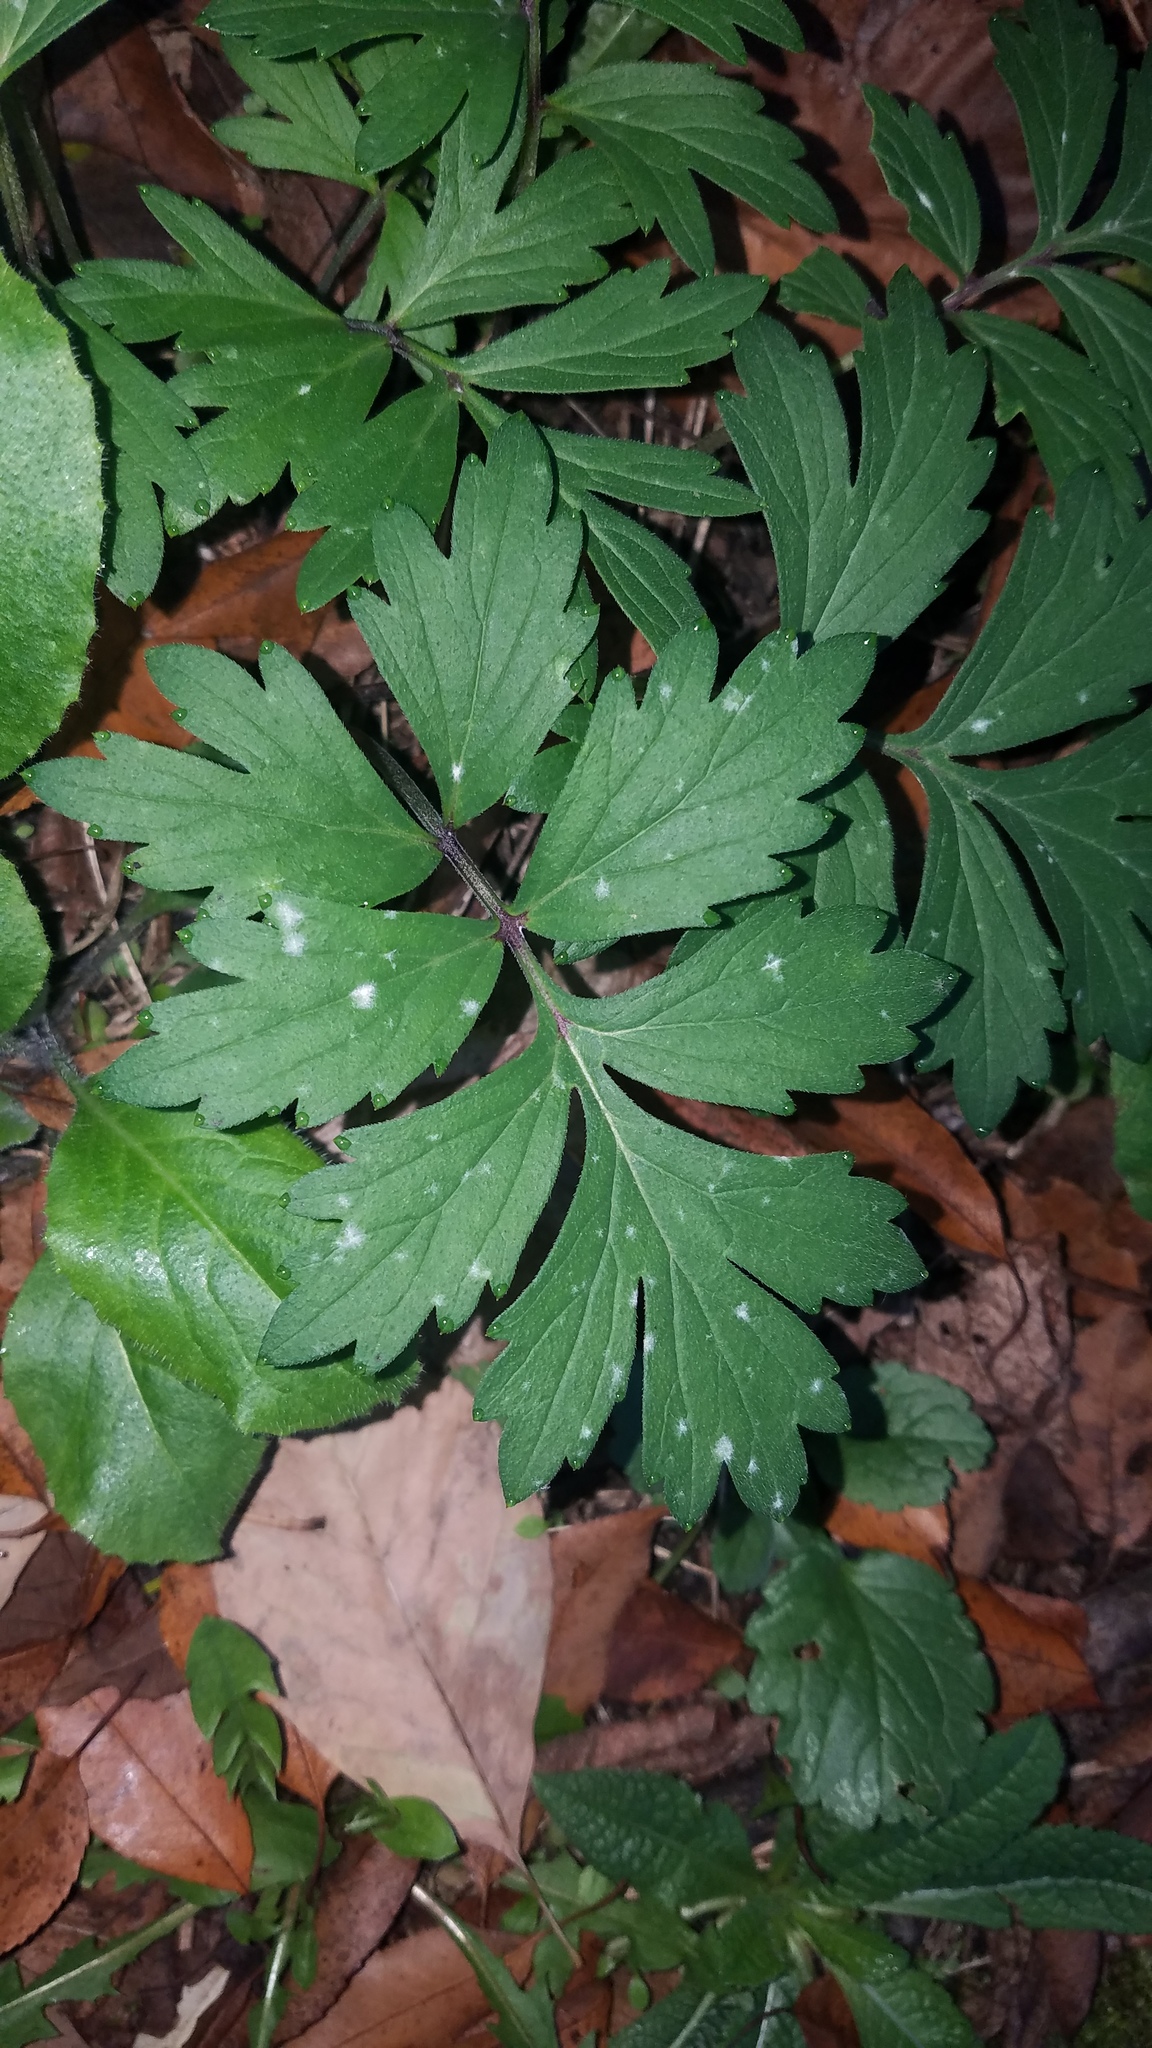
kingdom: Plantae
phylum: Tracheophyta
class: Magnoliopsida
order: Boraginales
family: Hydrophyllaceae
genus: Hydrophyllum
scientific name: Hydrophyllum virginianum
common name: Virginia waterleaf
